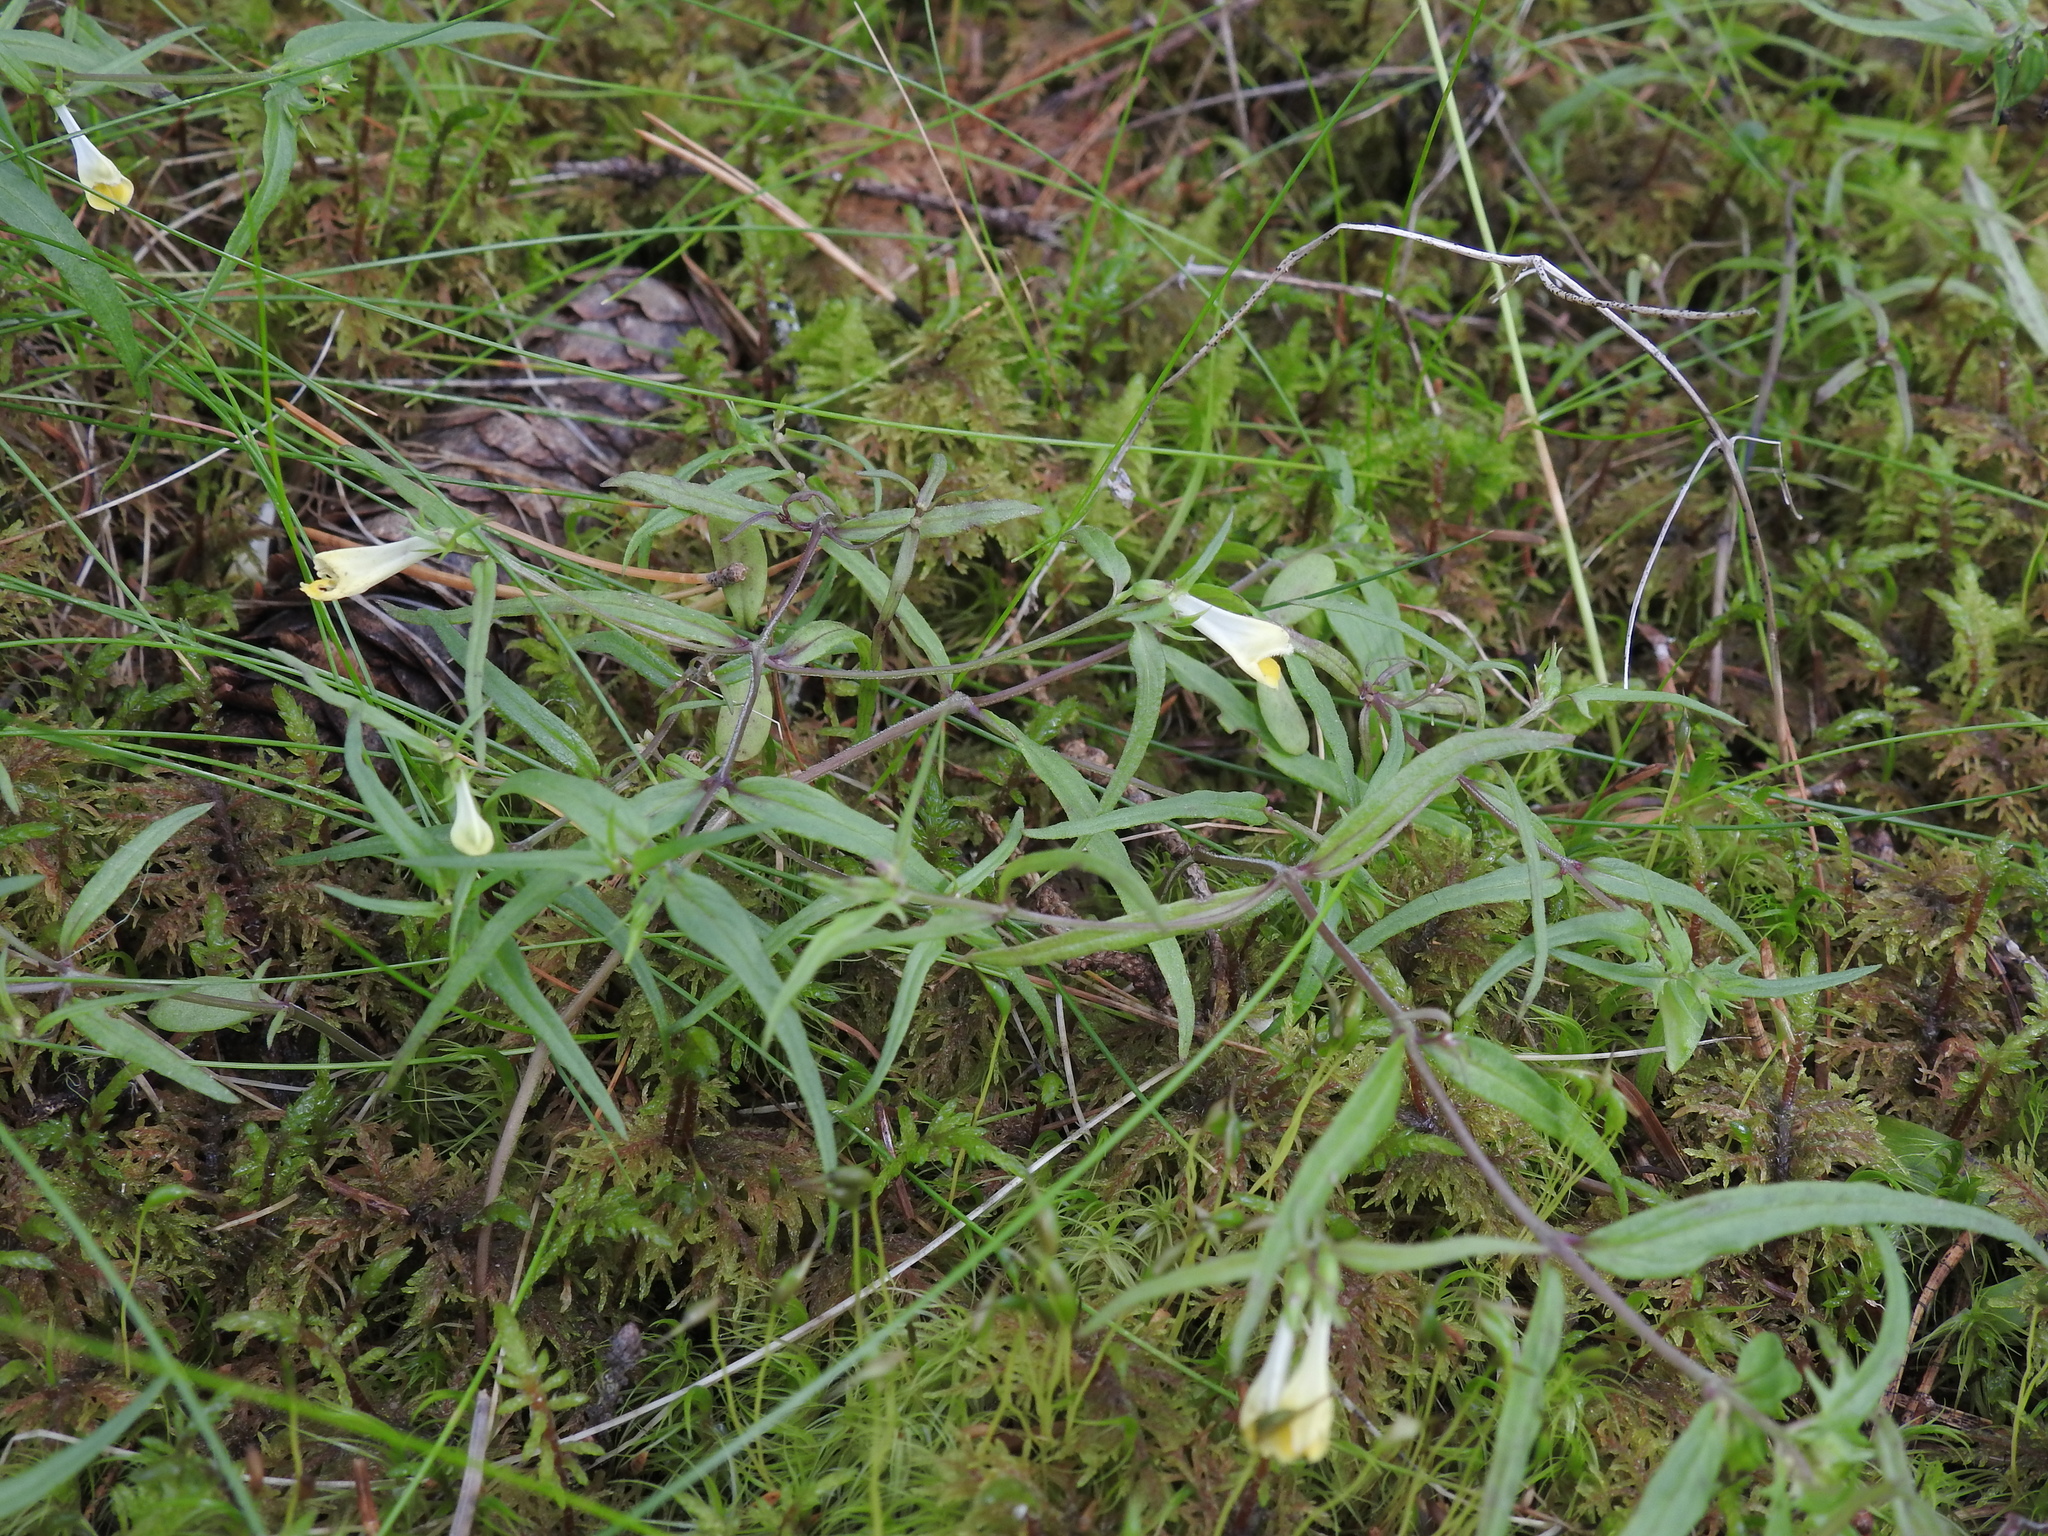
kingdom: Plantae
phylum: Tracheophyta
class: Magnoliopsida
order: Lamiales
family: Orobanchaceae
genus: Melampyrum
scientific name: Melampyrum pratense
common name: Common cow-wheat
